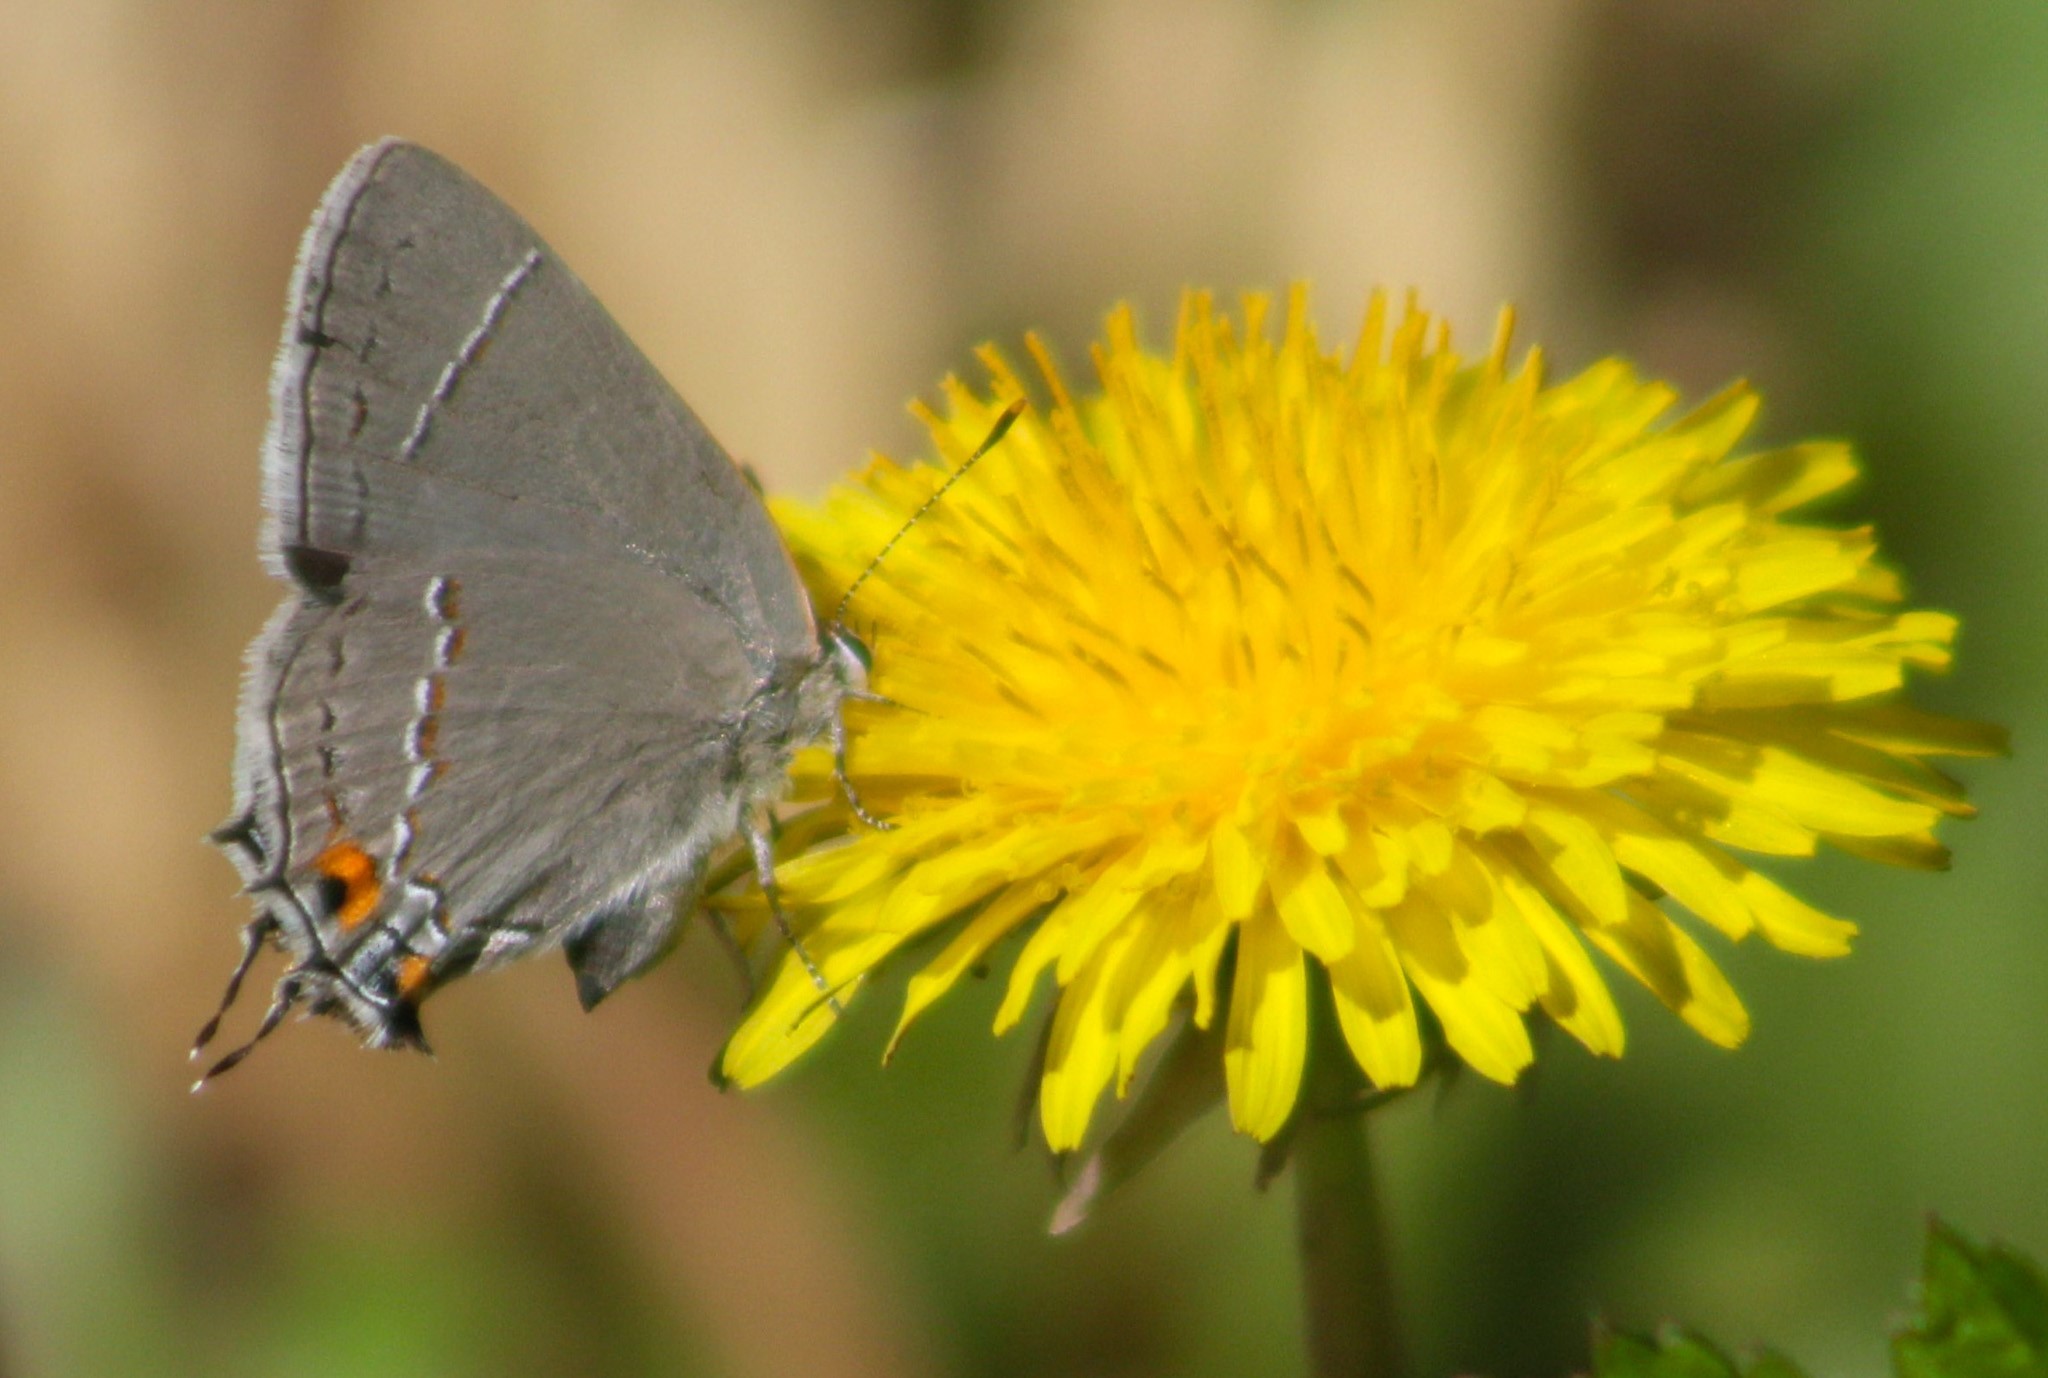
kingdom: Animalia
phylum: Arthropoda
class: Insecta
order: Lepidoptera
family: Lycaenidae
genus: Strymon
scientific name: Strymon melinus
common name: Gray hairstreak
